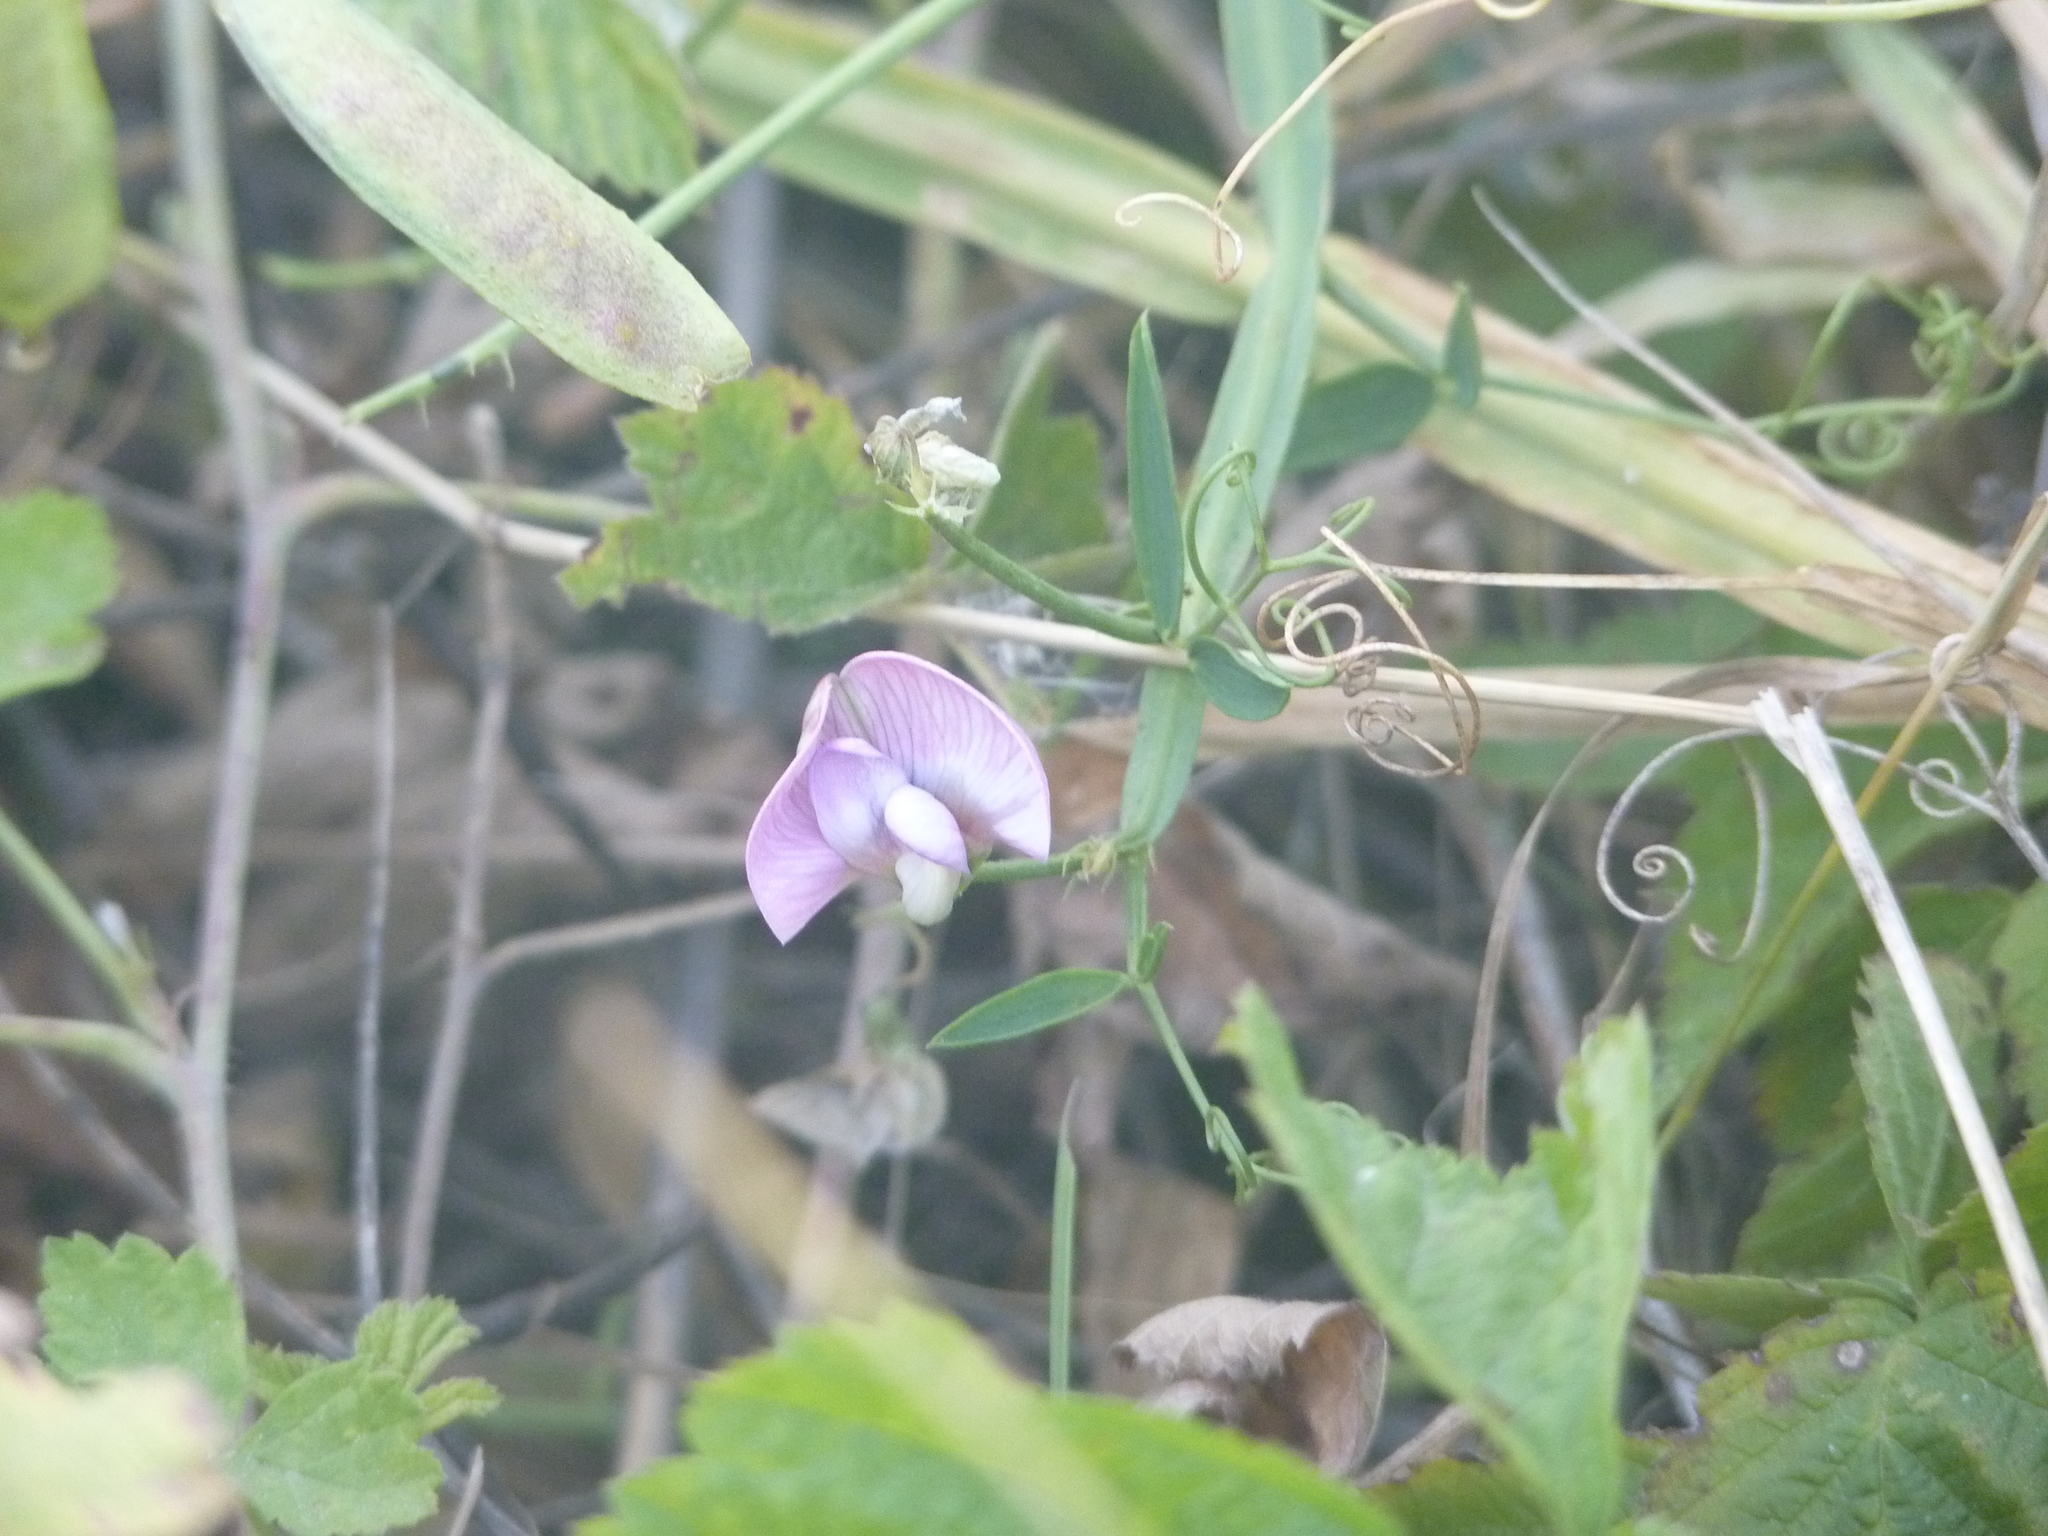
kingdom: Plantae
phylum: Tracheophyta
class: Magnoliopsida
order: Fabales
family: Fabaceae
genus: Lathyrus
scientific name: Lathyrus sylvestris
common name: Flat pea
